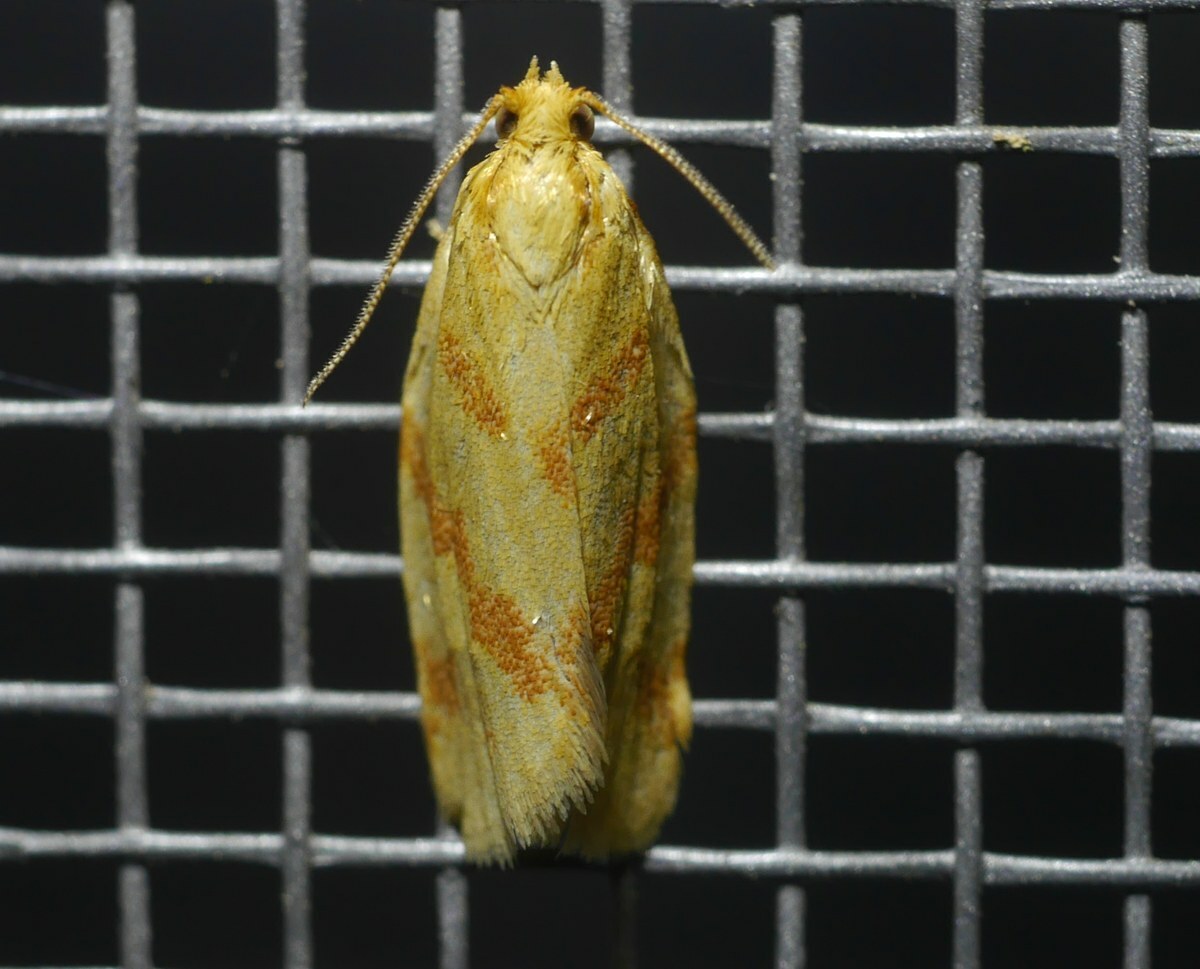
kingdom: Animalia
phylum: Arthropoda
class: Insecta
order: Lepidoptera
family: Tortricidae
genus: Clepsis
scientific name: Clepsis pallidana
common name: Sheep's-bit conch
